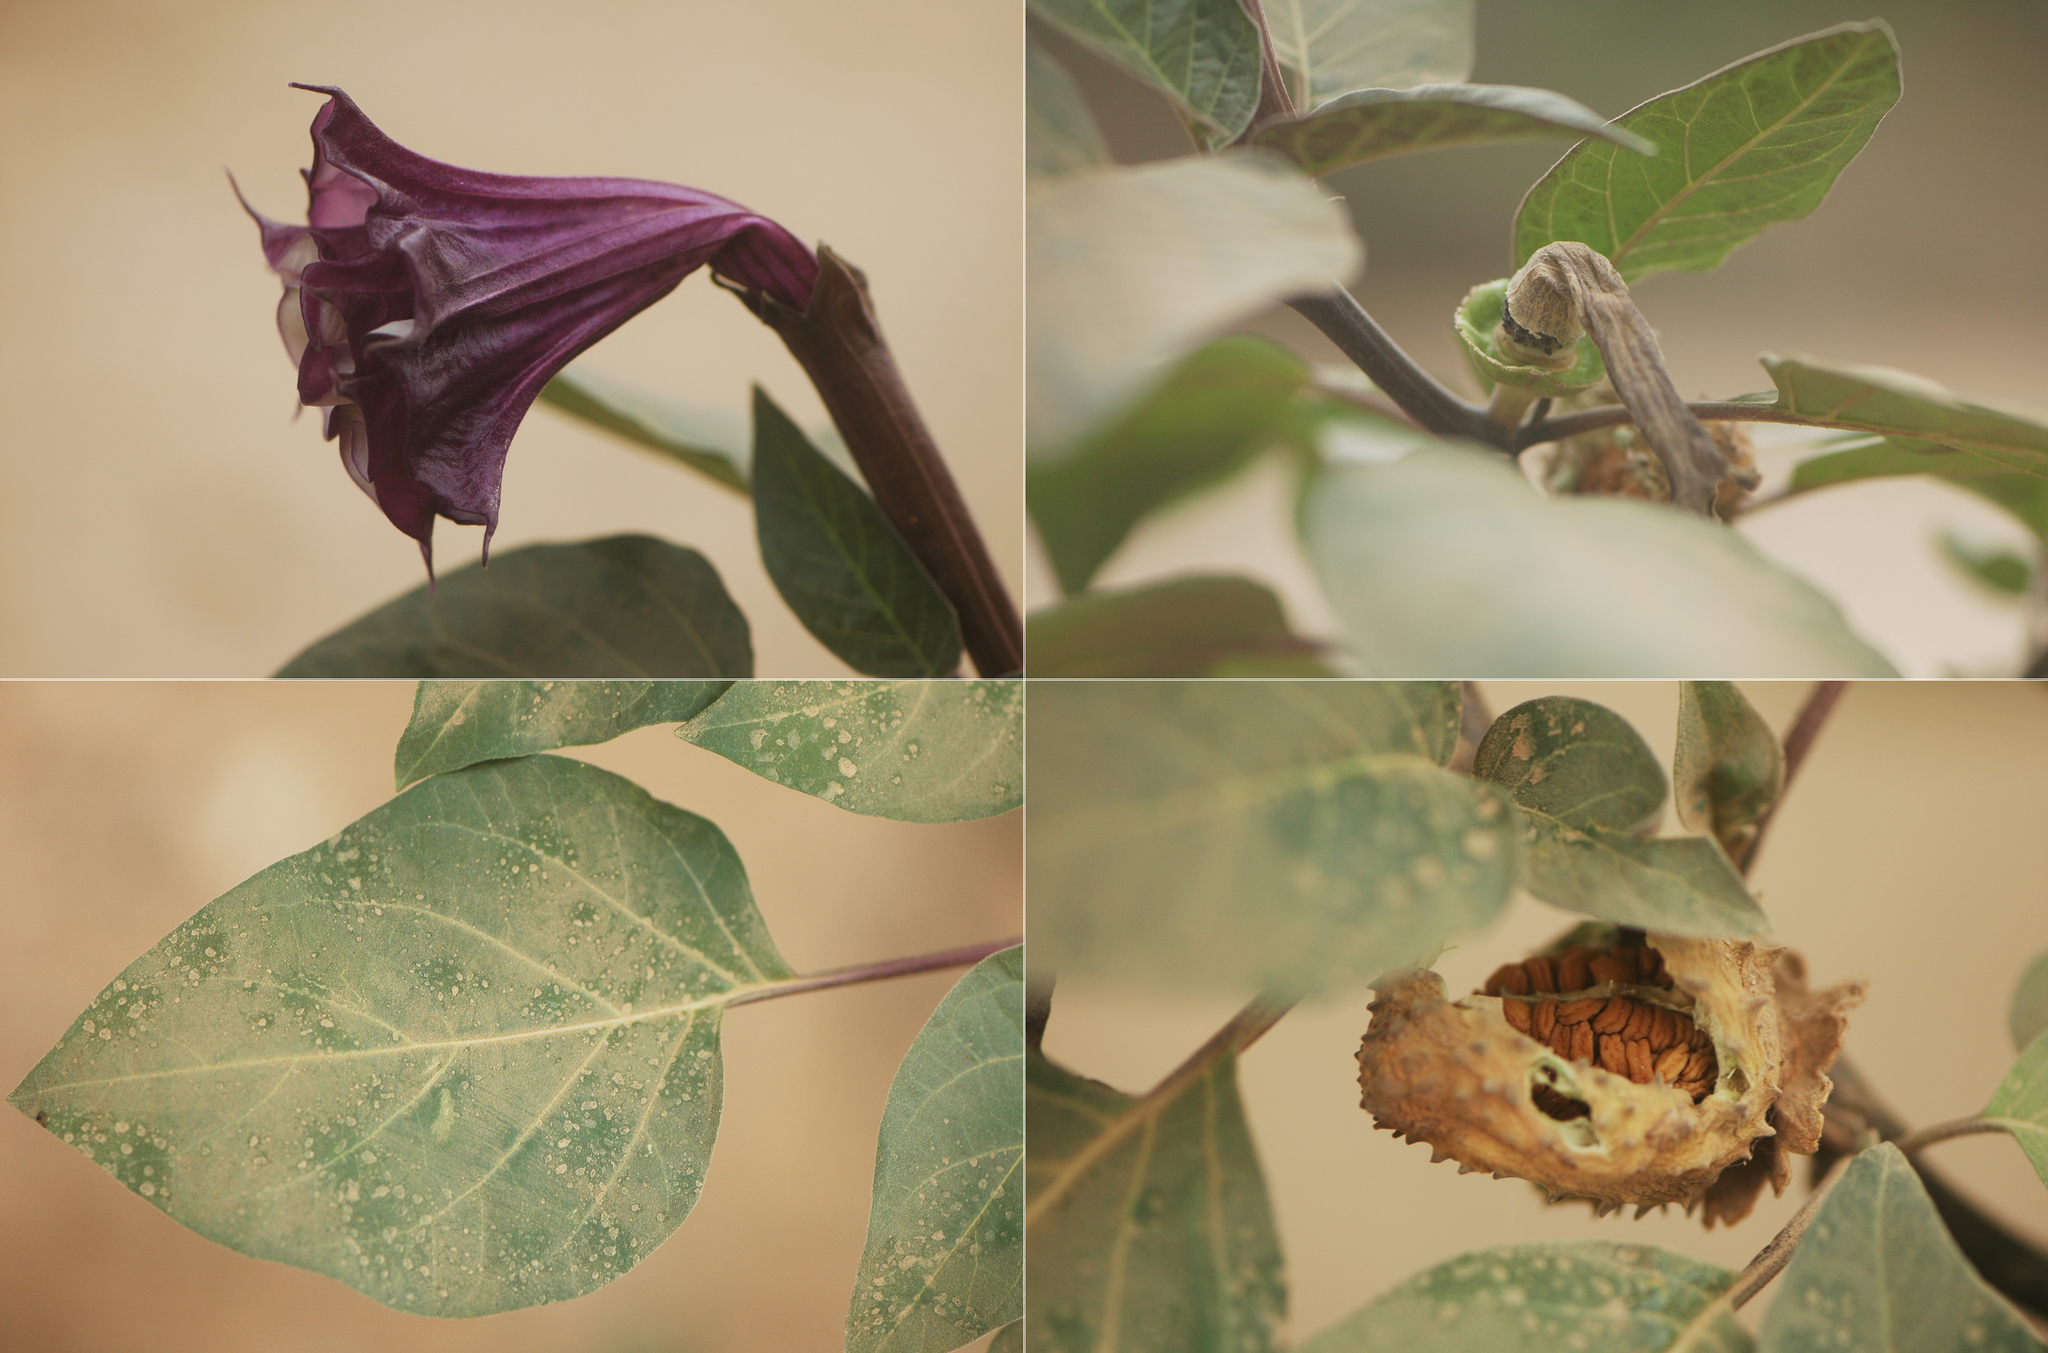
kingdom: Plantae
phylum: Tracheophyta
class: Magnoliopsida
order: Solanales
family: Solanaceae
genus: Datura
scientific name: Datura metel
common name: Jimsonweed
